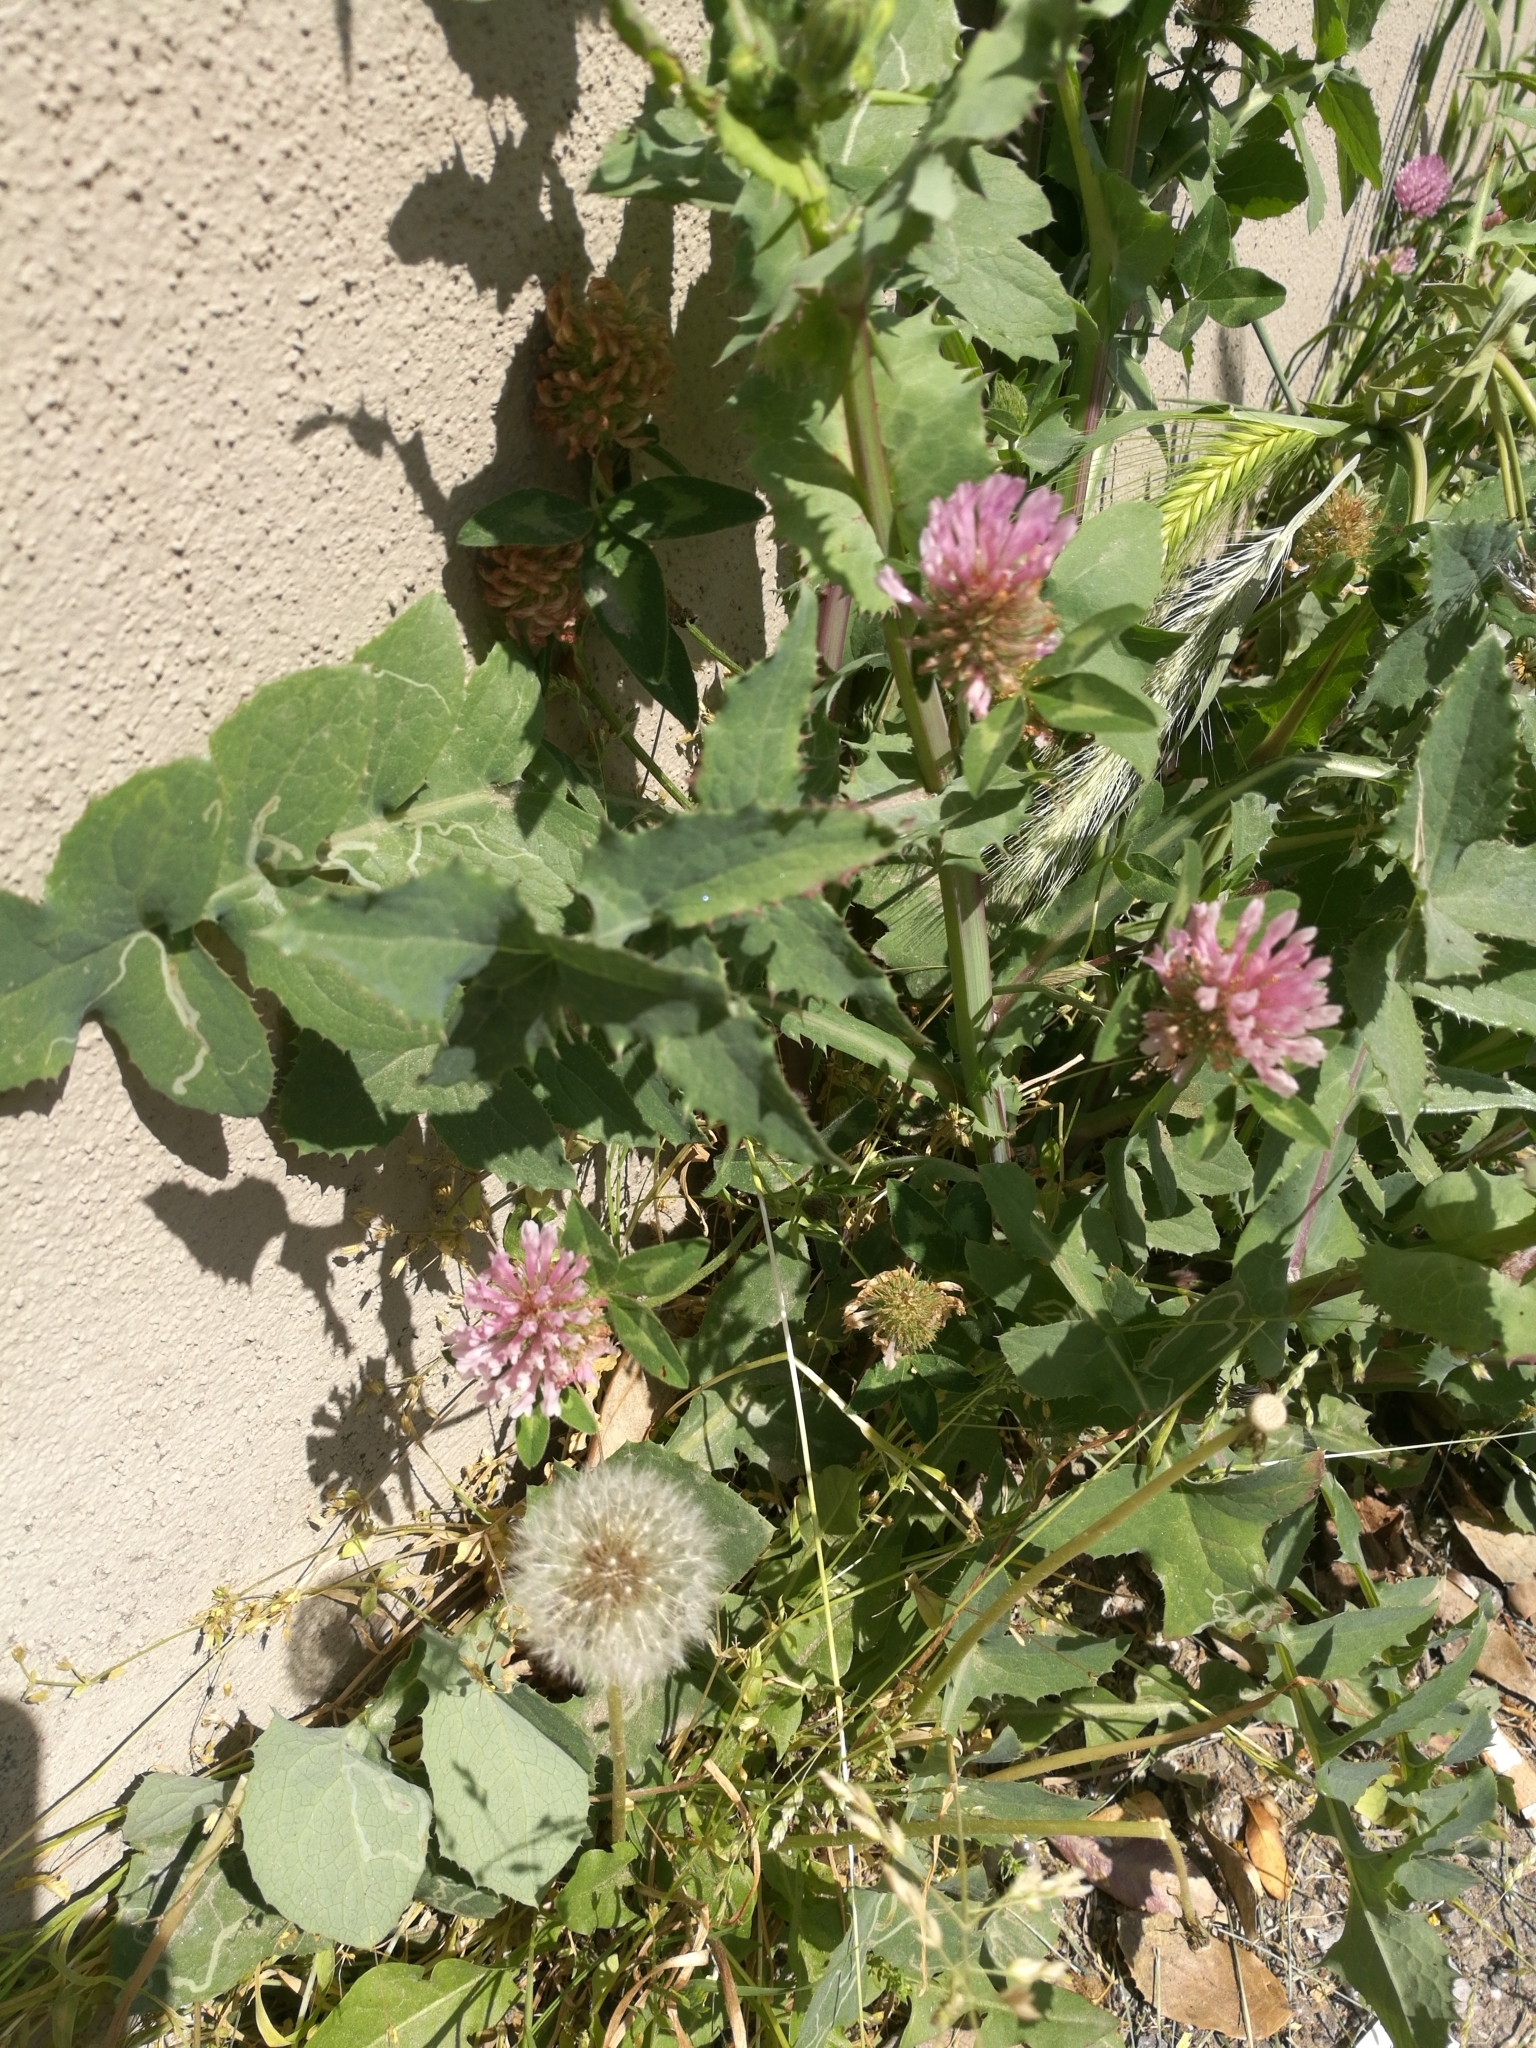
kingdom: Plantae
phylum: Tracheophyta
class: Magnoliopsida
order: Fabales
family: Fabaceae
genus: Trifolium
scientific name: Trifolium pratense
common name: Red clover
